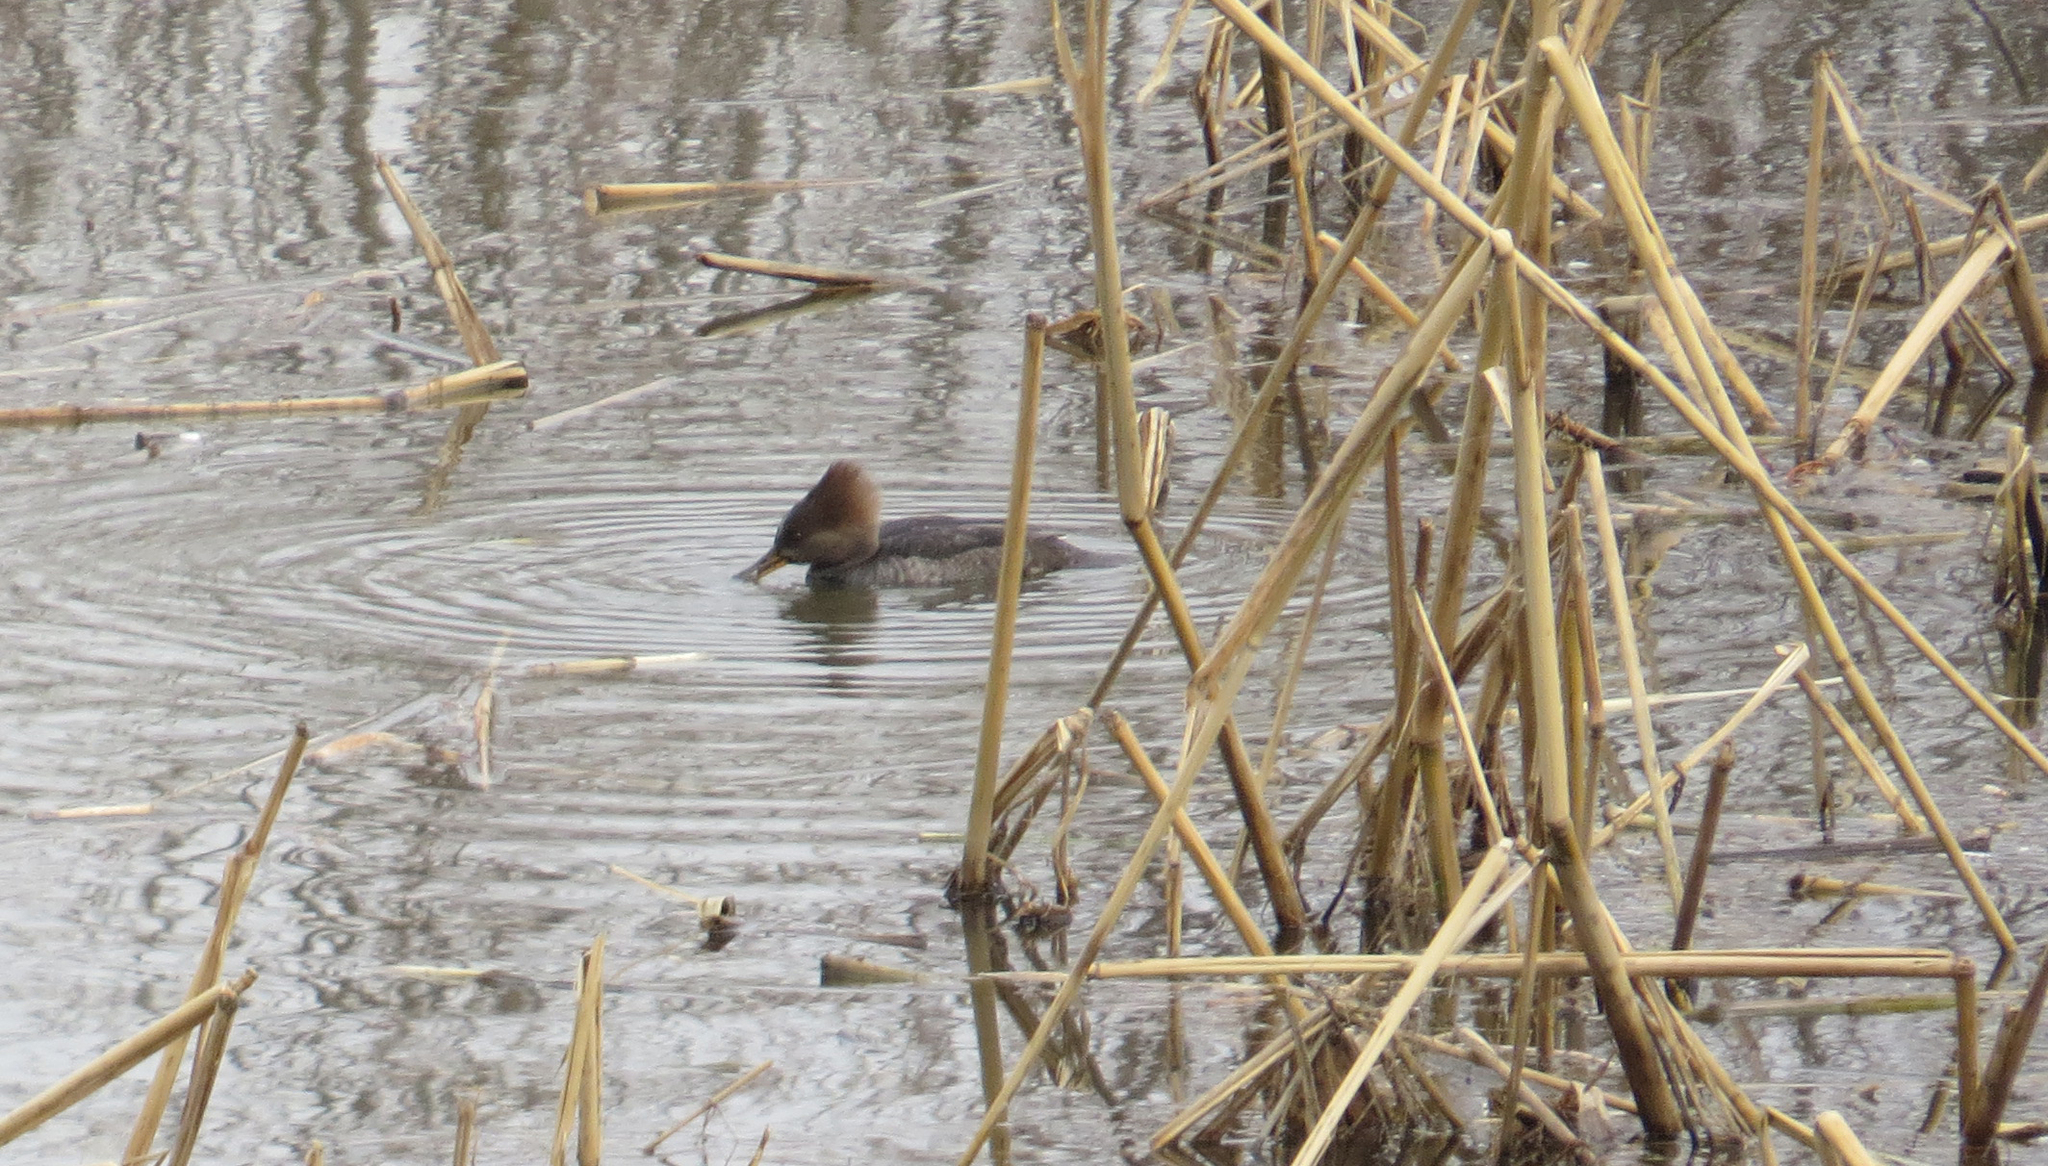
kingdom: Animalia
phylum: Chordata
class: Aves
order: Anseriformes
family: Anatidae
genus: Lophodytes
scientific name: Lophodytes cucullatus
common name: Hooded merganser
